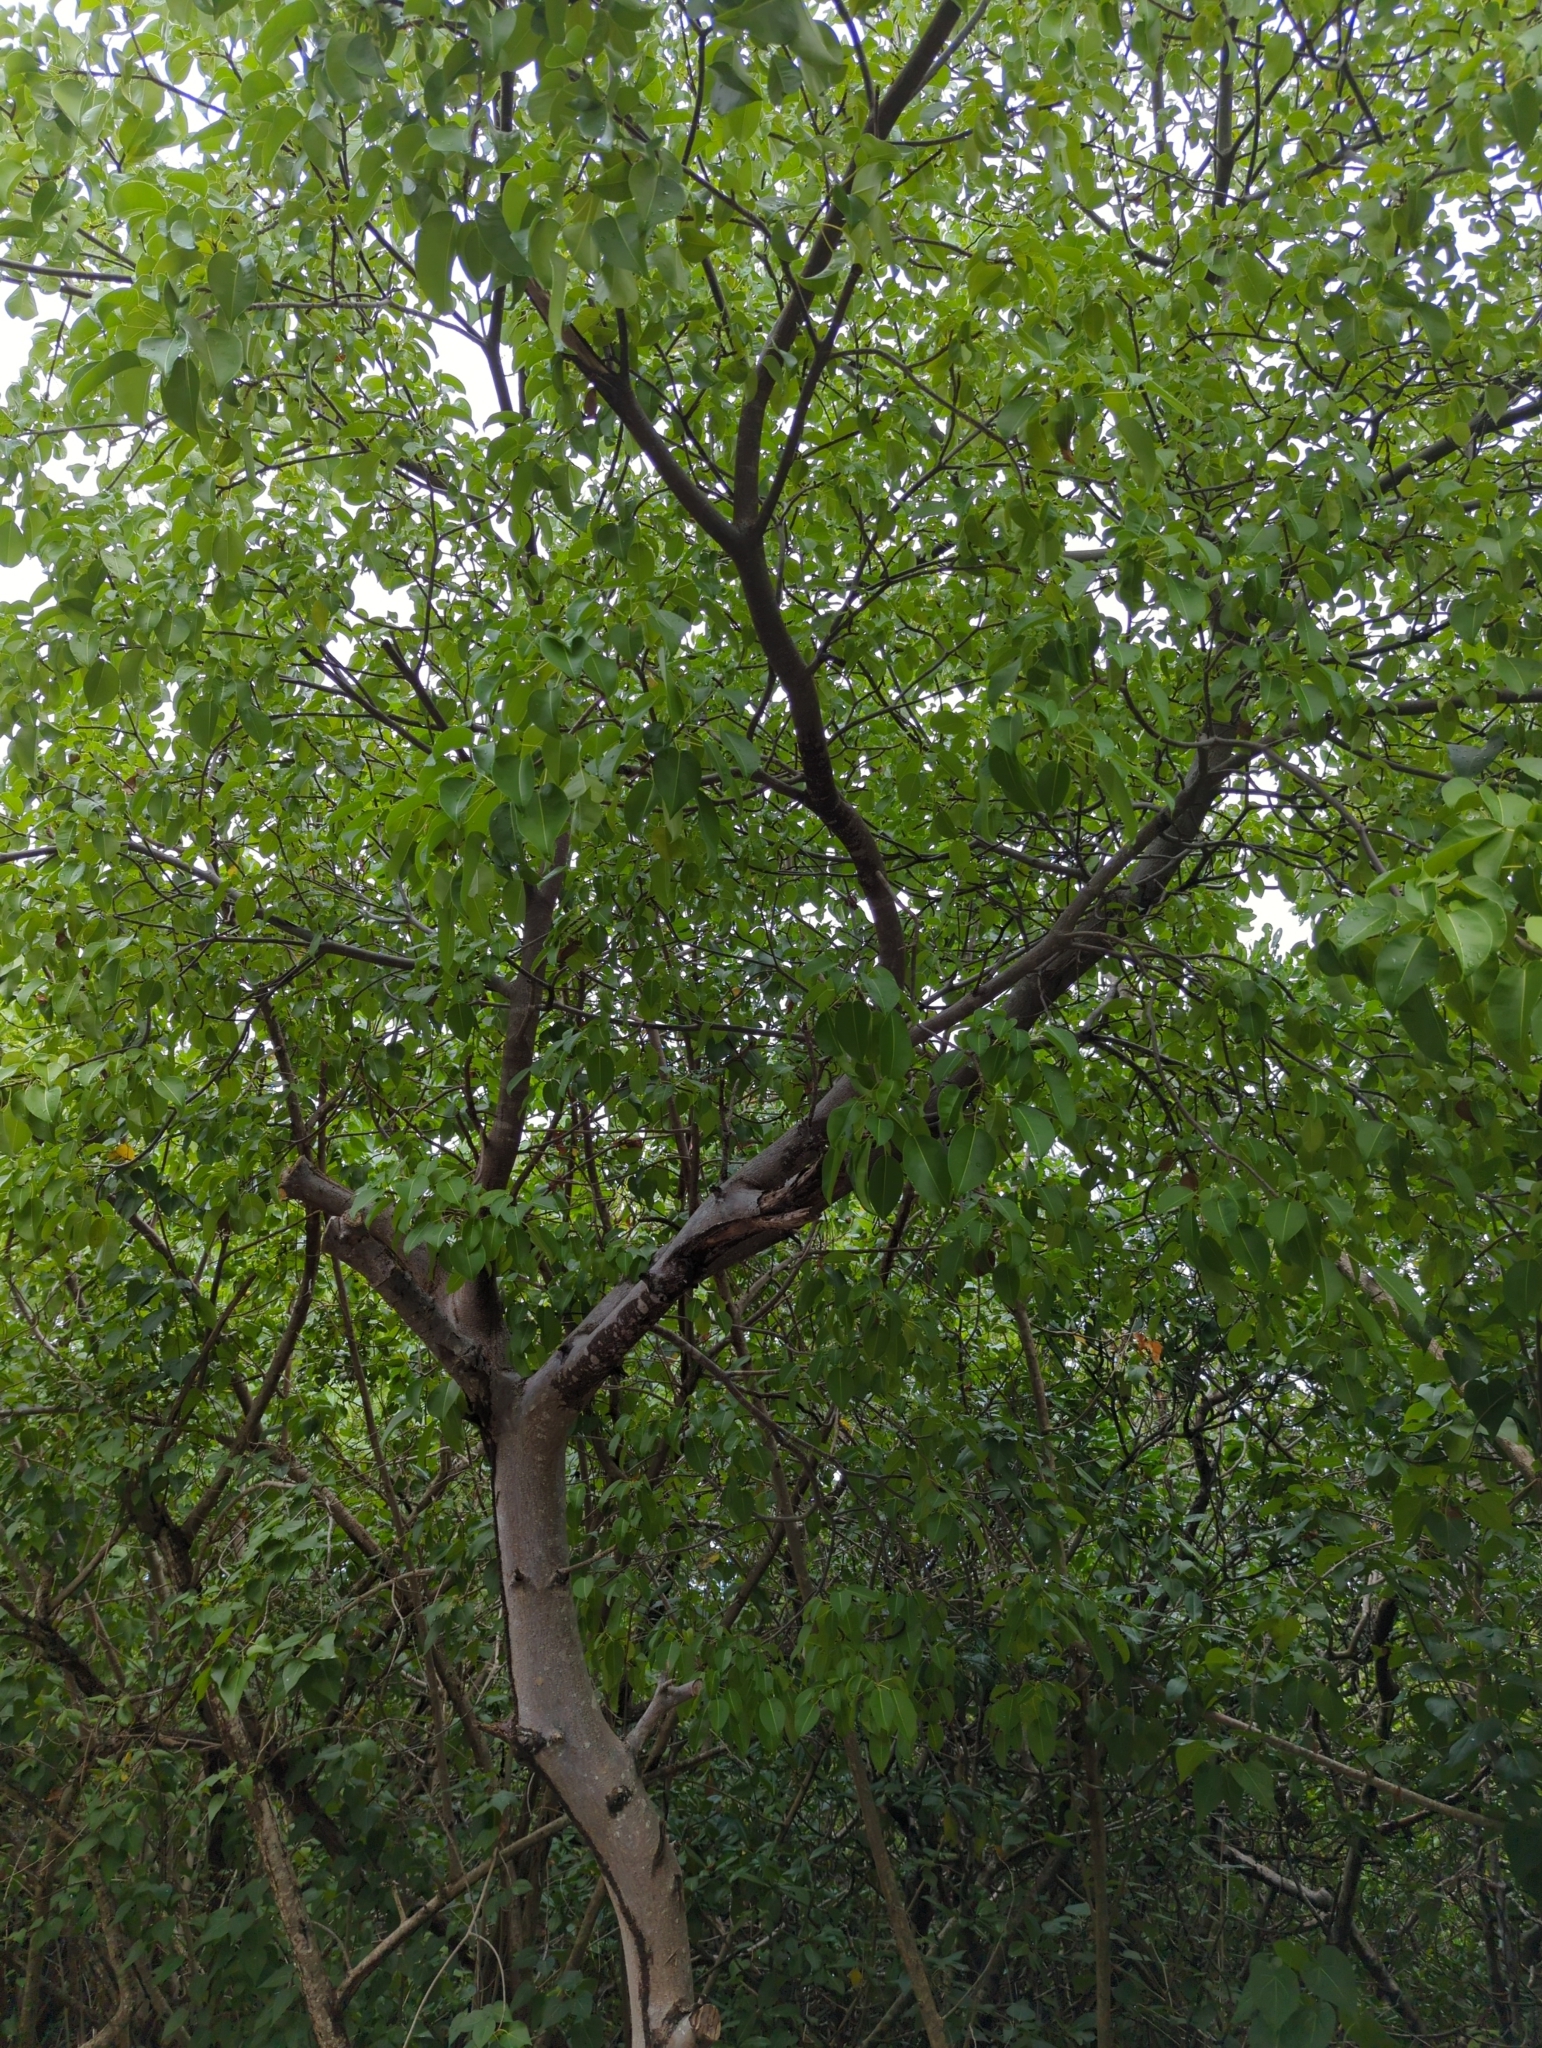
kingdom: Plantae
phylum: Tracheophyta
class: Magnoliopsida
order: Malpighiales
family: Euphorbiaceae
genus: Hippomane
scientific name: Hippomane mancinella
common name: Manchineel
